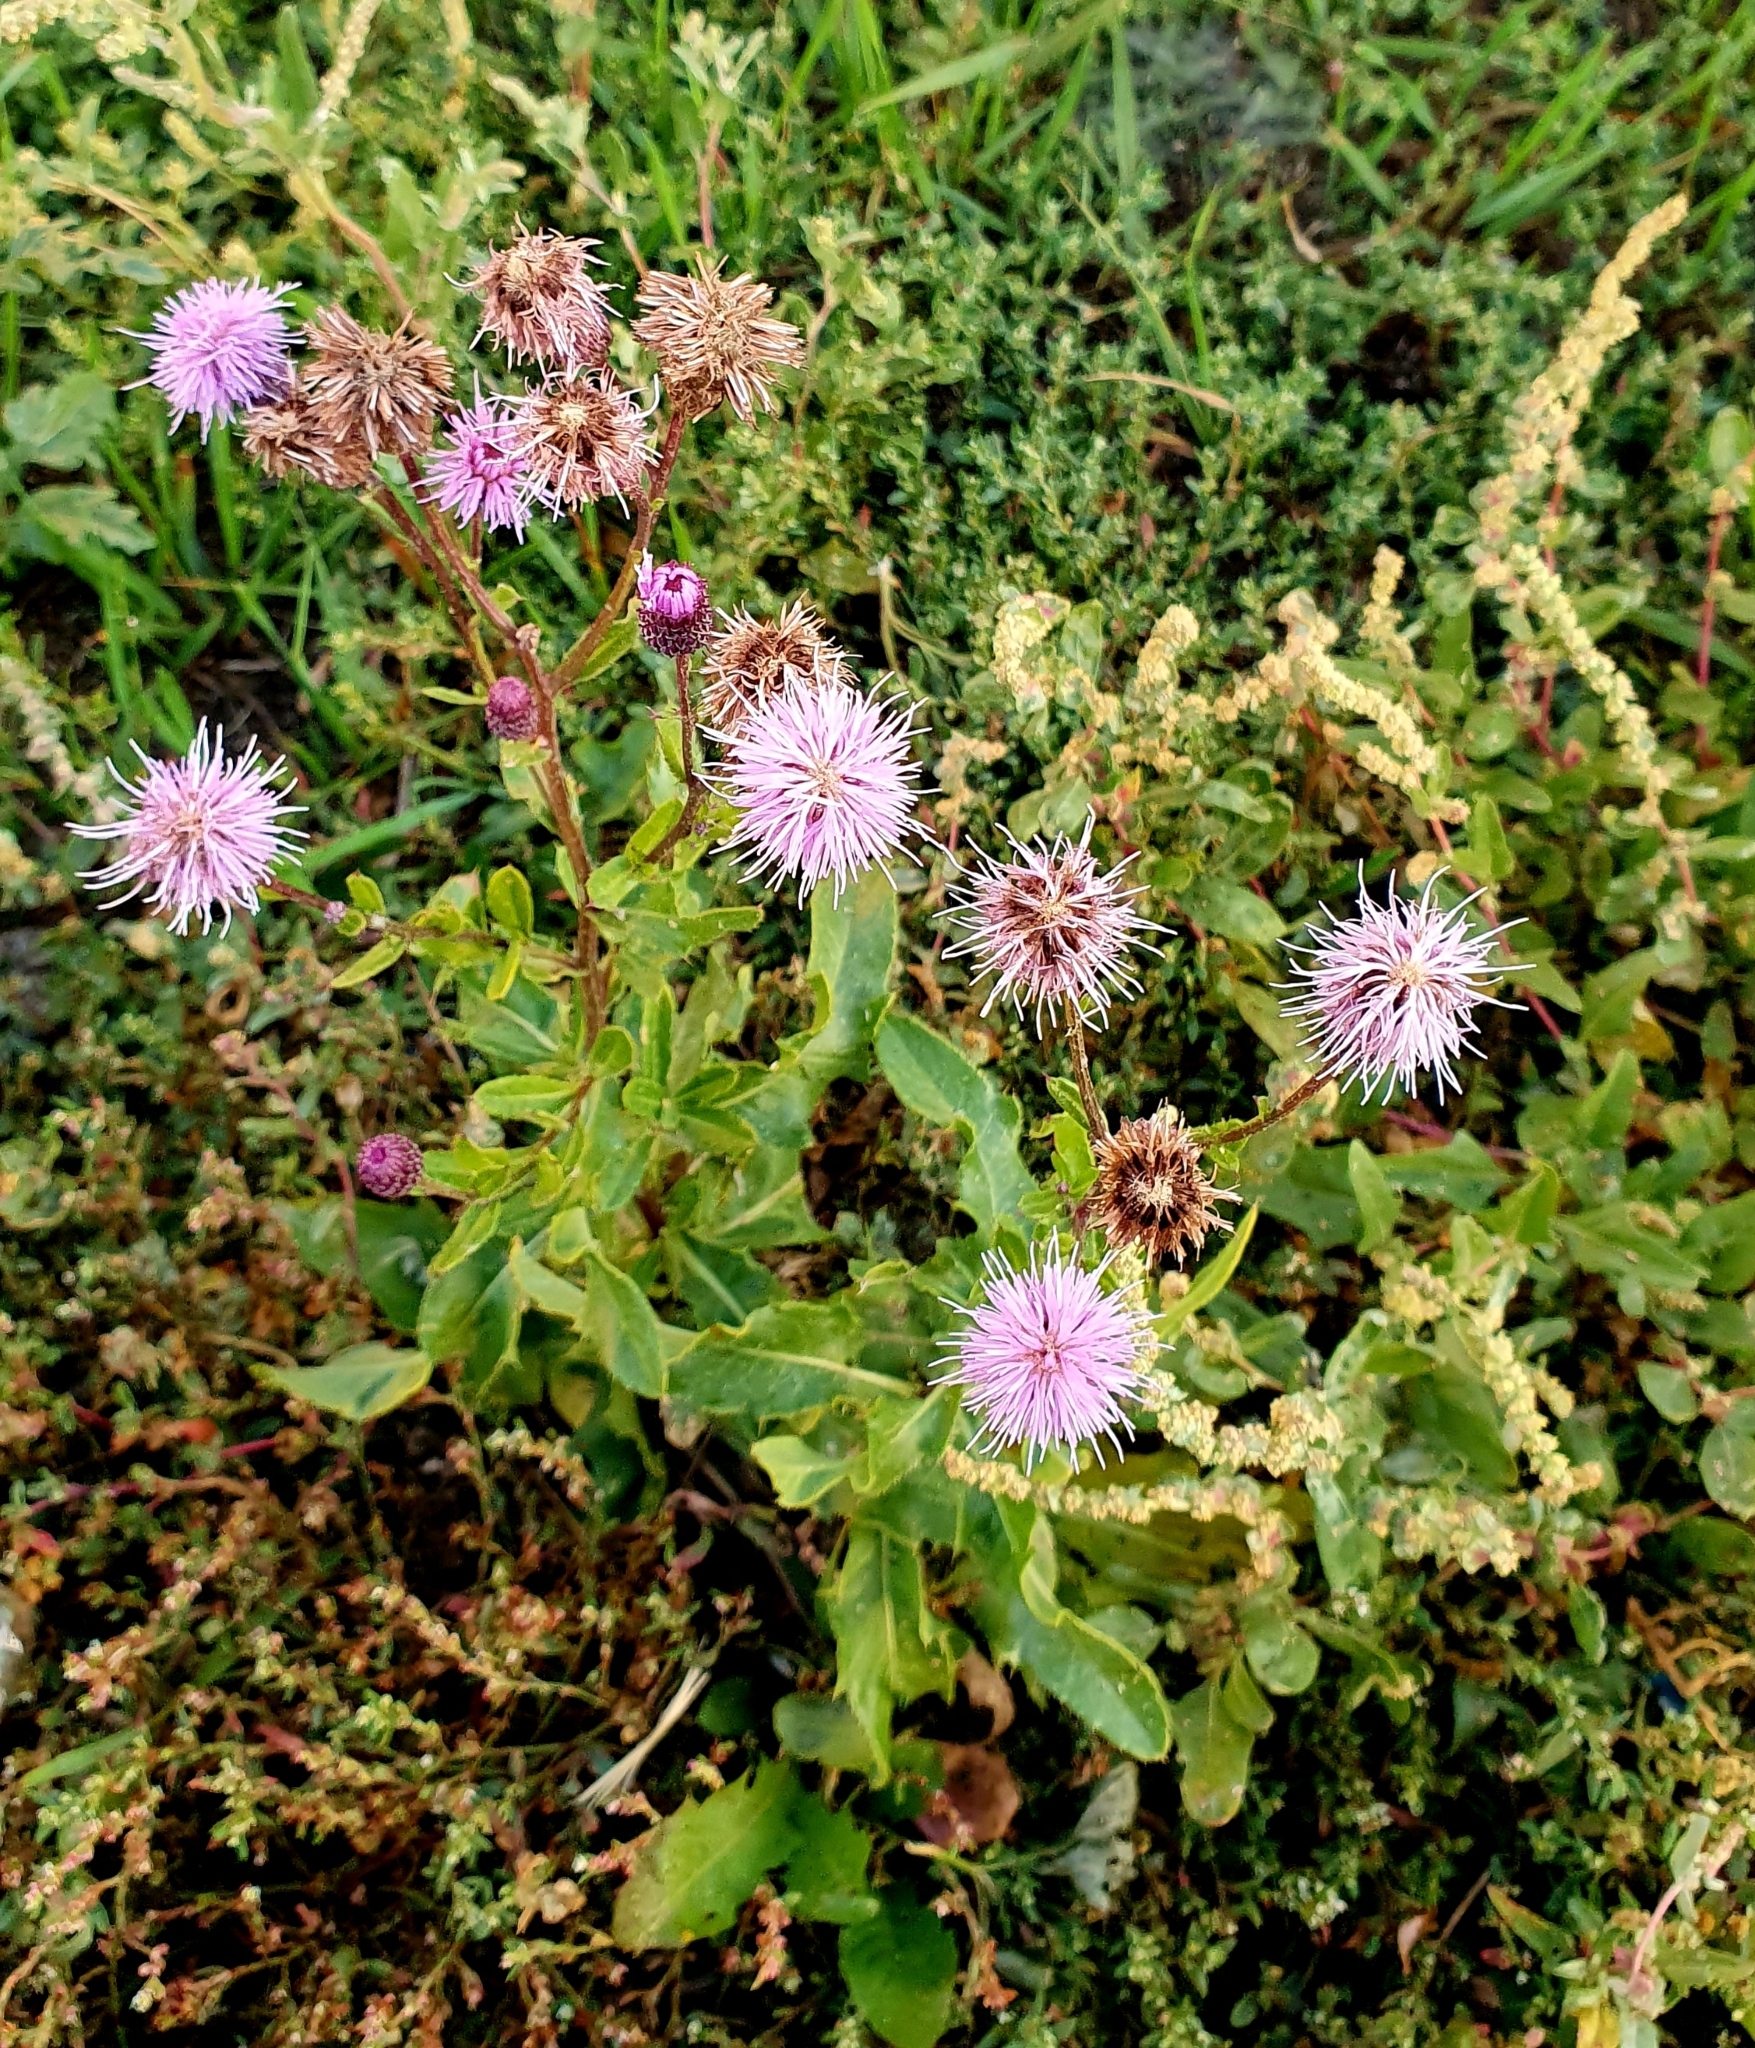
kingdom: Plantae
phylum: Tracheophyta
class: Magnoliopsida
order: Asterales
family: Asteraceae
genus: Cirsium
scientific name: Cirsium arvense
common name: Creeping thistle
